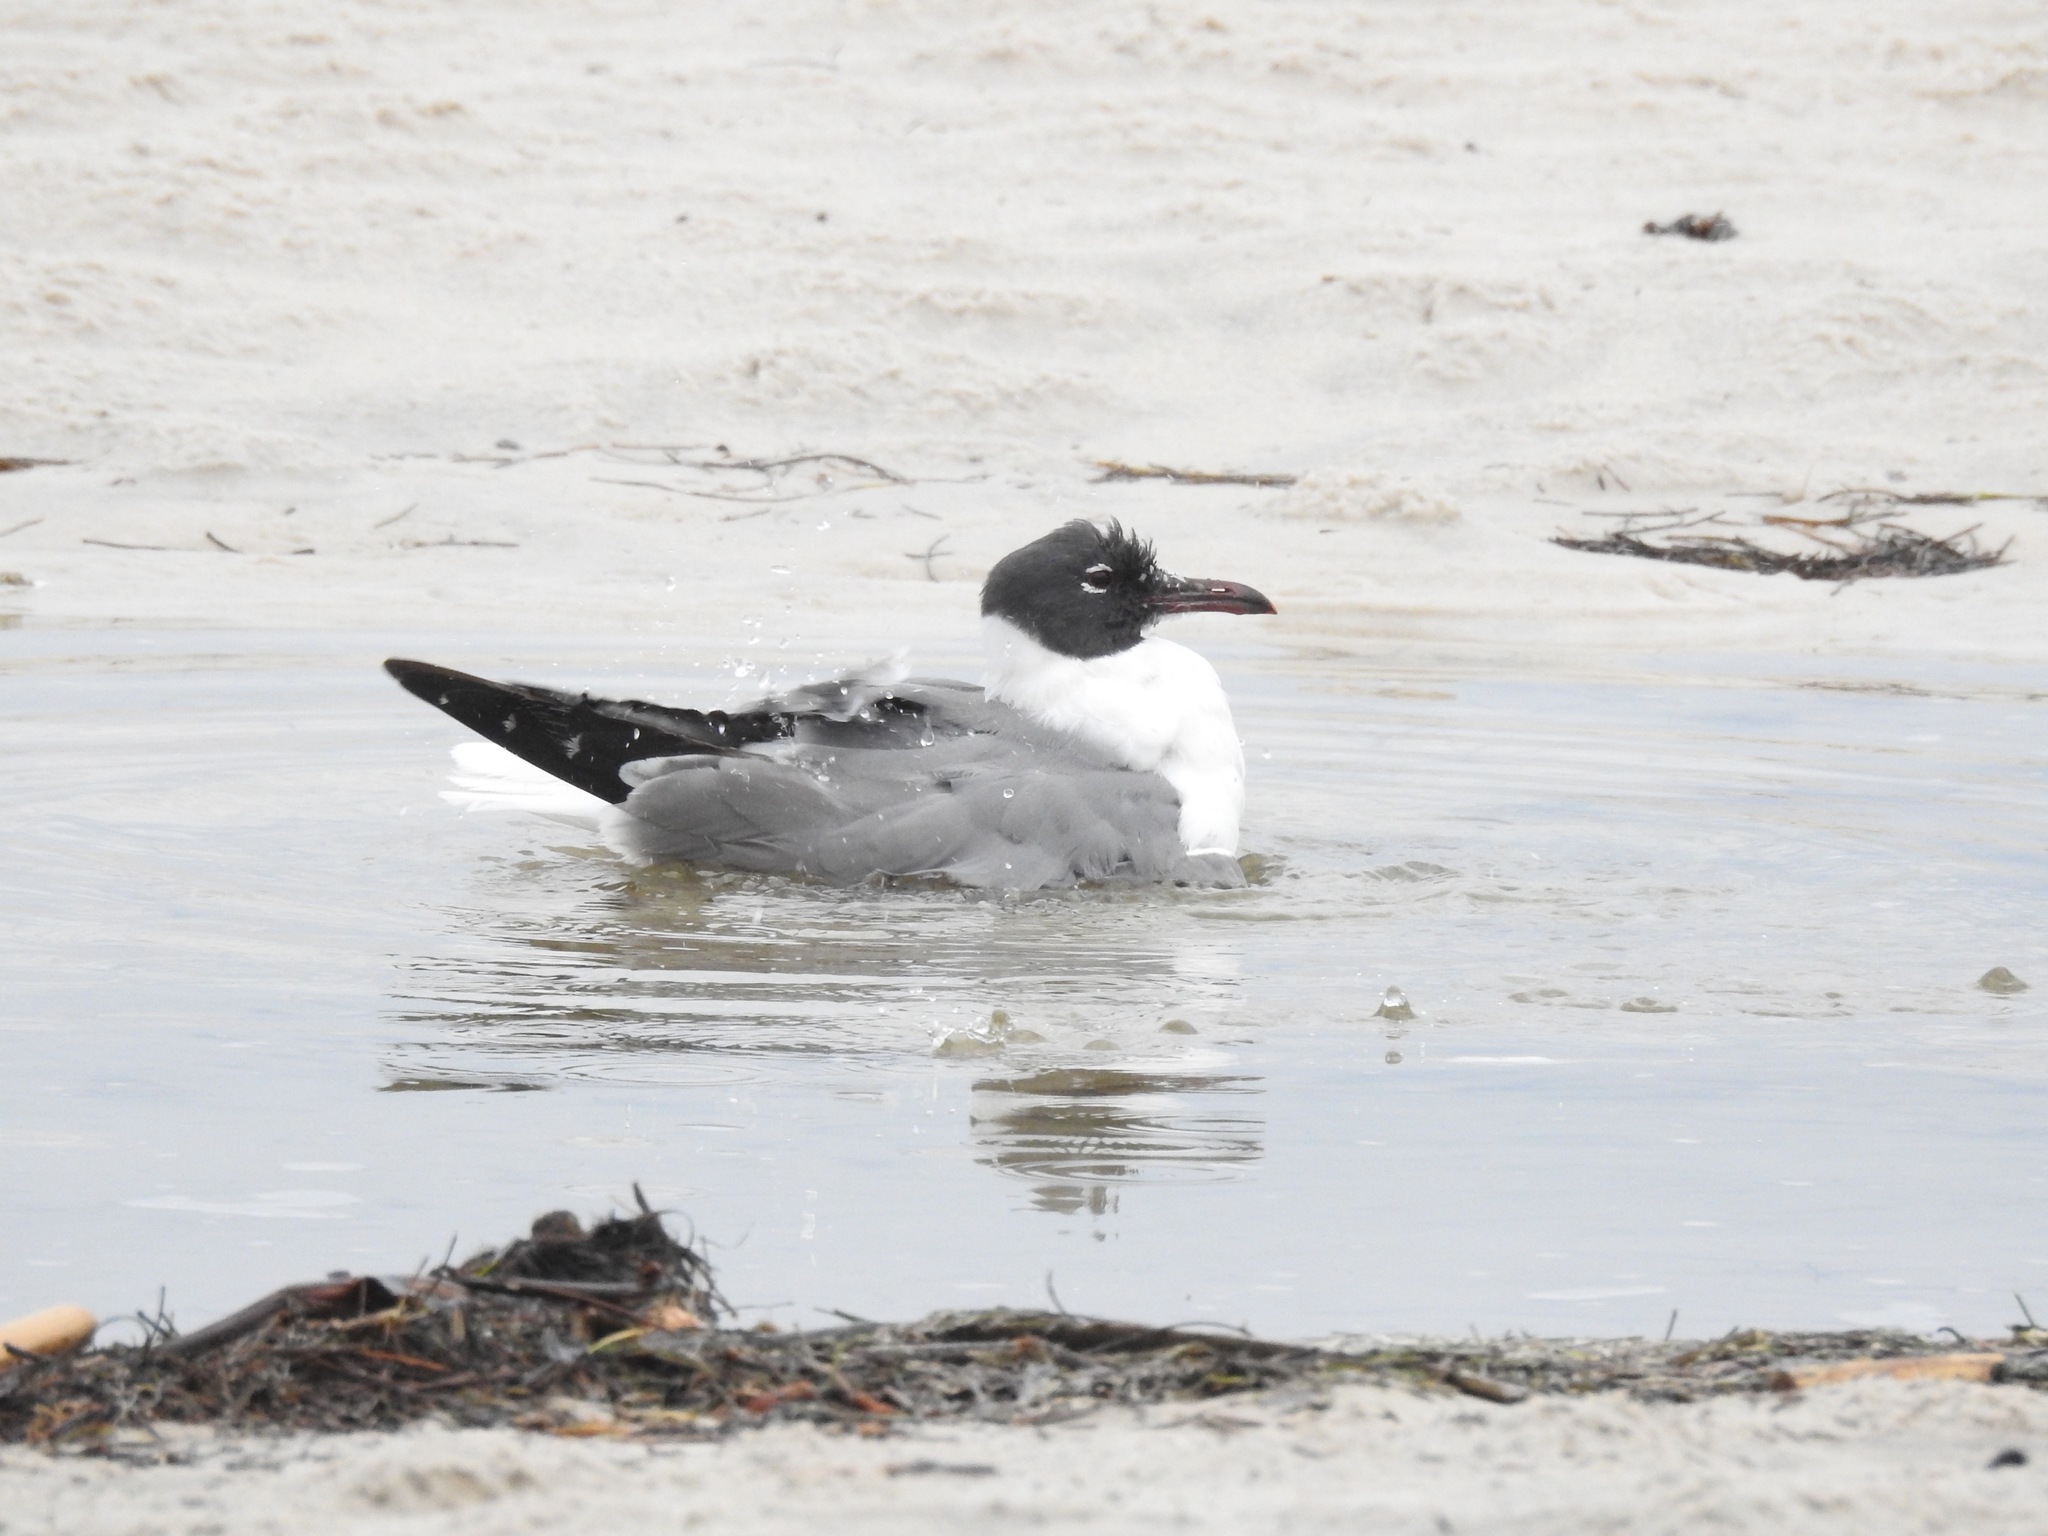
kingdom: Animalia
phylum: Chordata
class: Aves
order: Charadriiformes
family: Laridae
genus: Leucophaeus
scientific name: Leucophaeus atricilla
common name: Laughing gull
